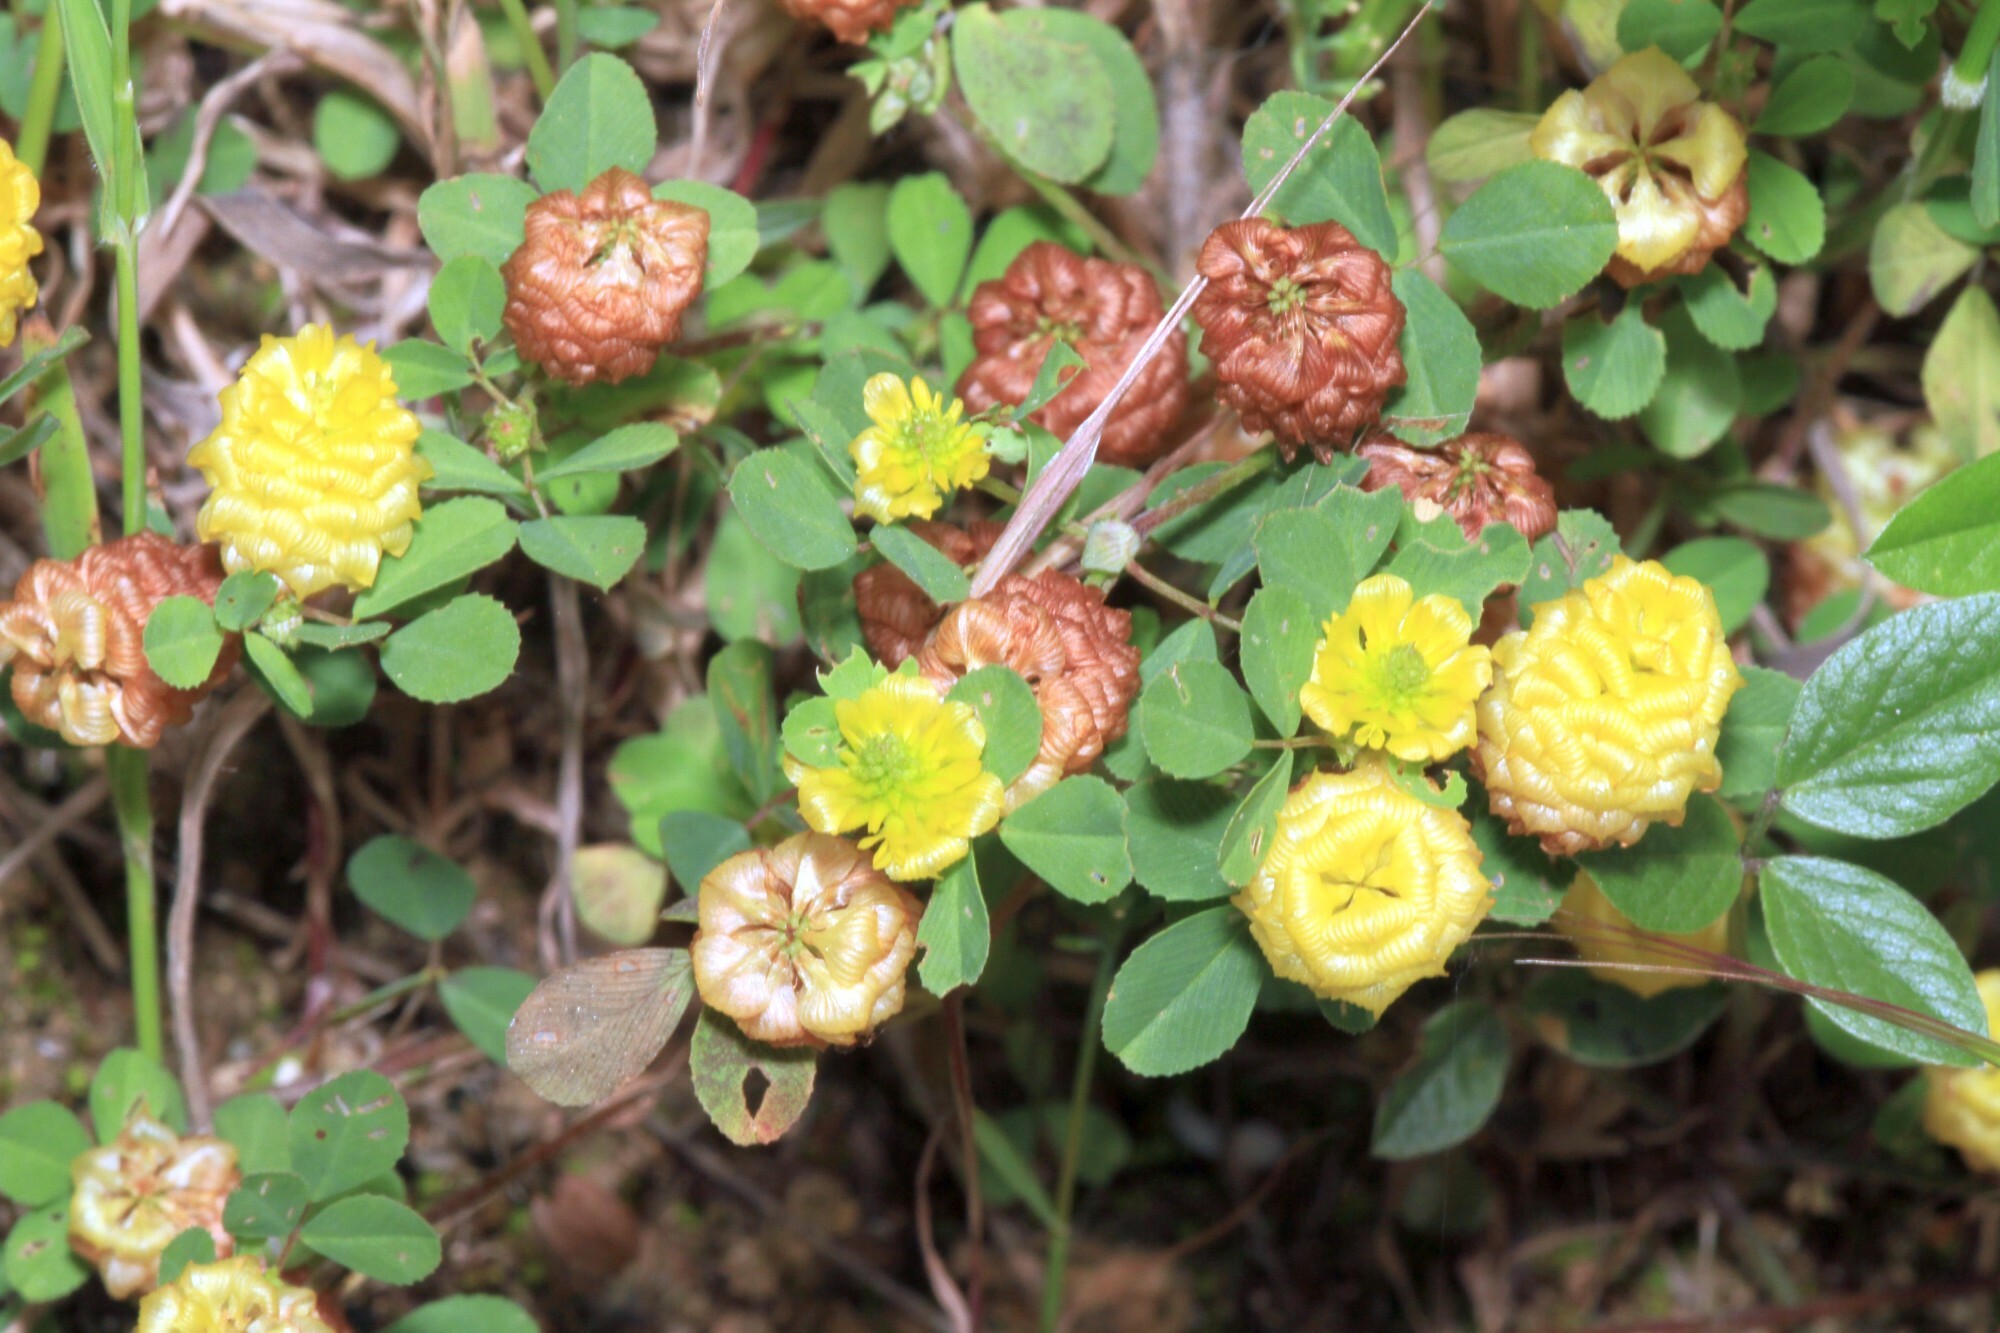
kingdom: Plantae
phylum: Tracheophyta
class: Magnoliopsida
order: Fabales
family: Fabaceae
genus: Trifolium
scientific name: Trifolium campestre
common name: Field clover
